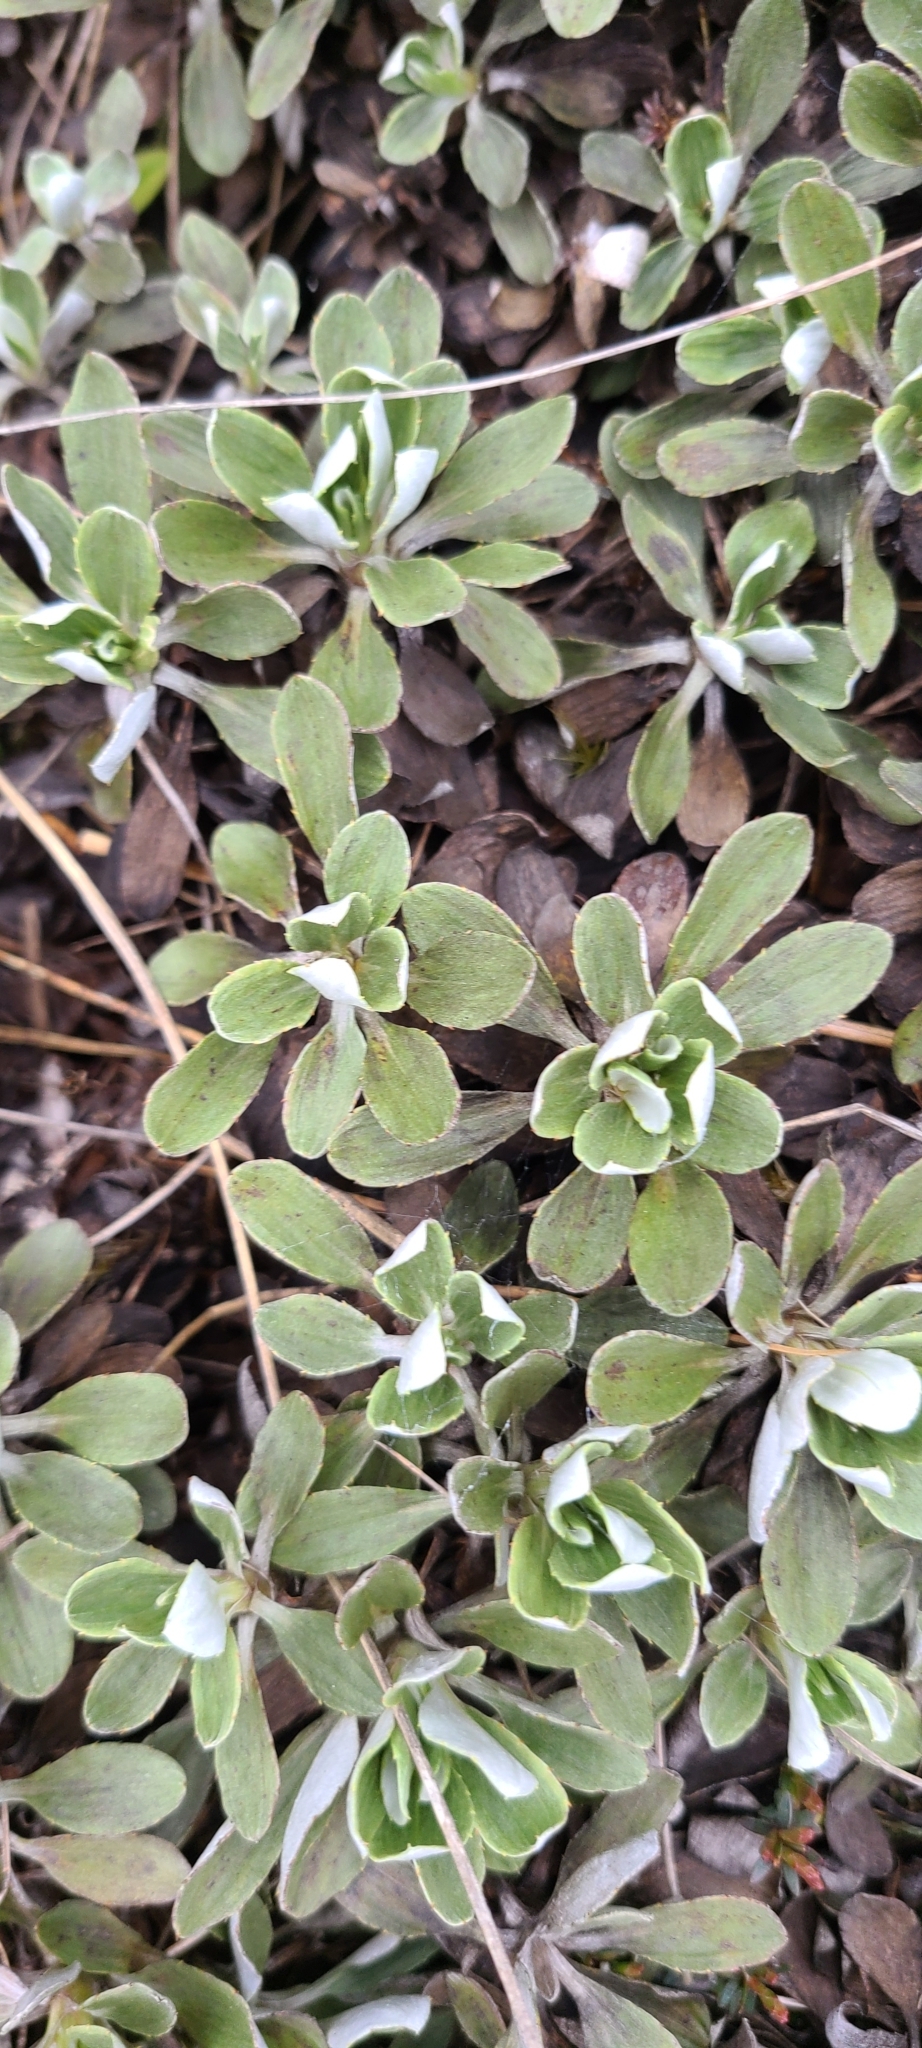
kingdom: Plantae
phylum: Tracheophyta
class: Magnoliopsida
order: Asterales
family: Asteraceae
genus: Celmisia
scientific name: Celmisia discolor
